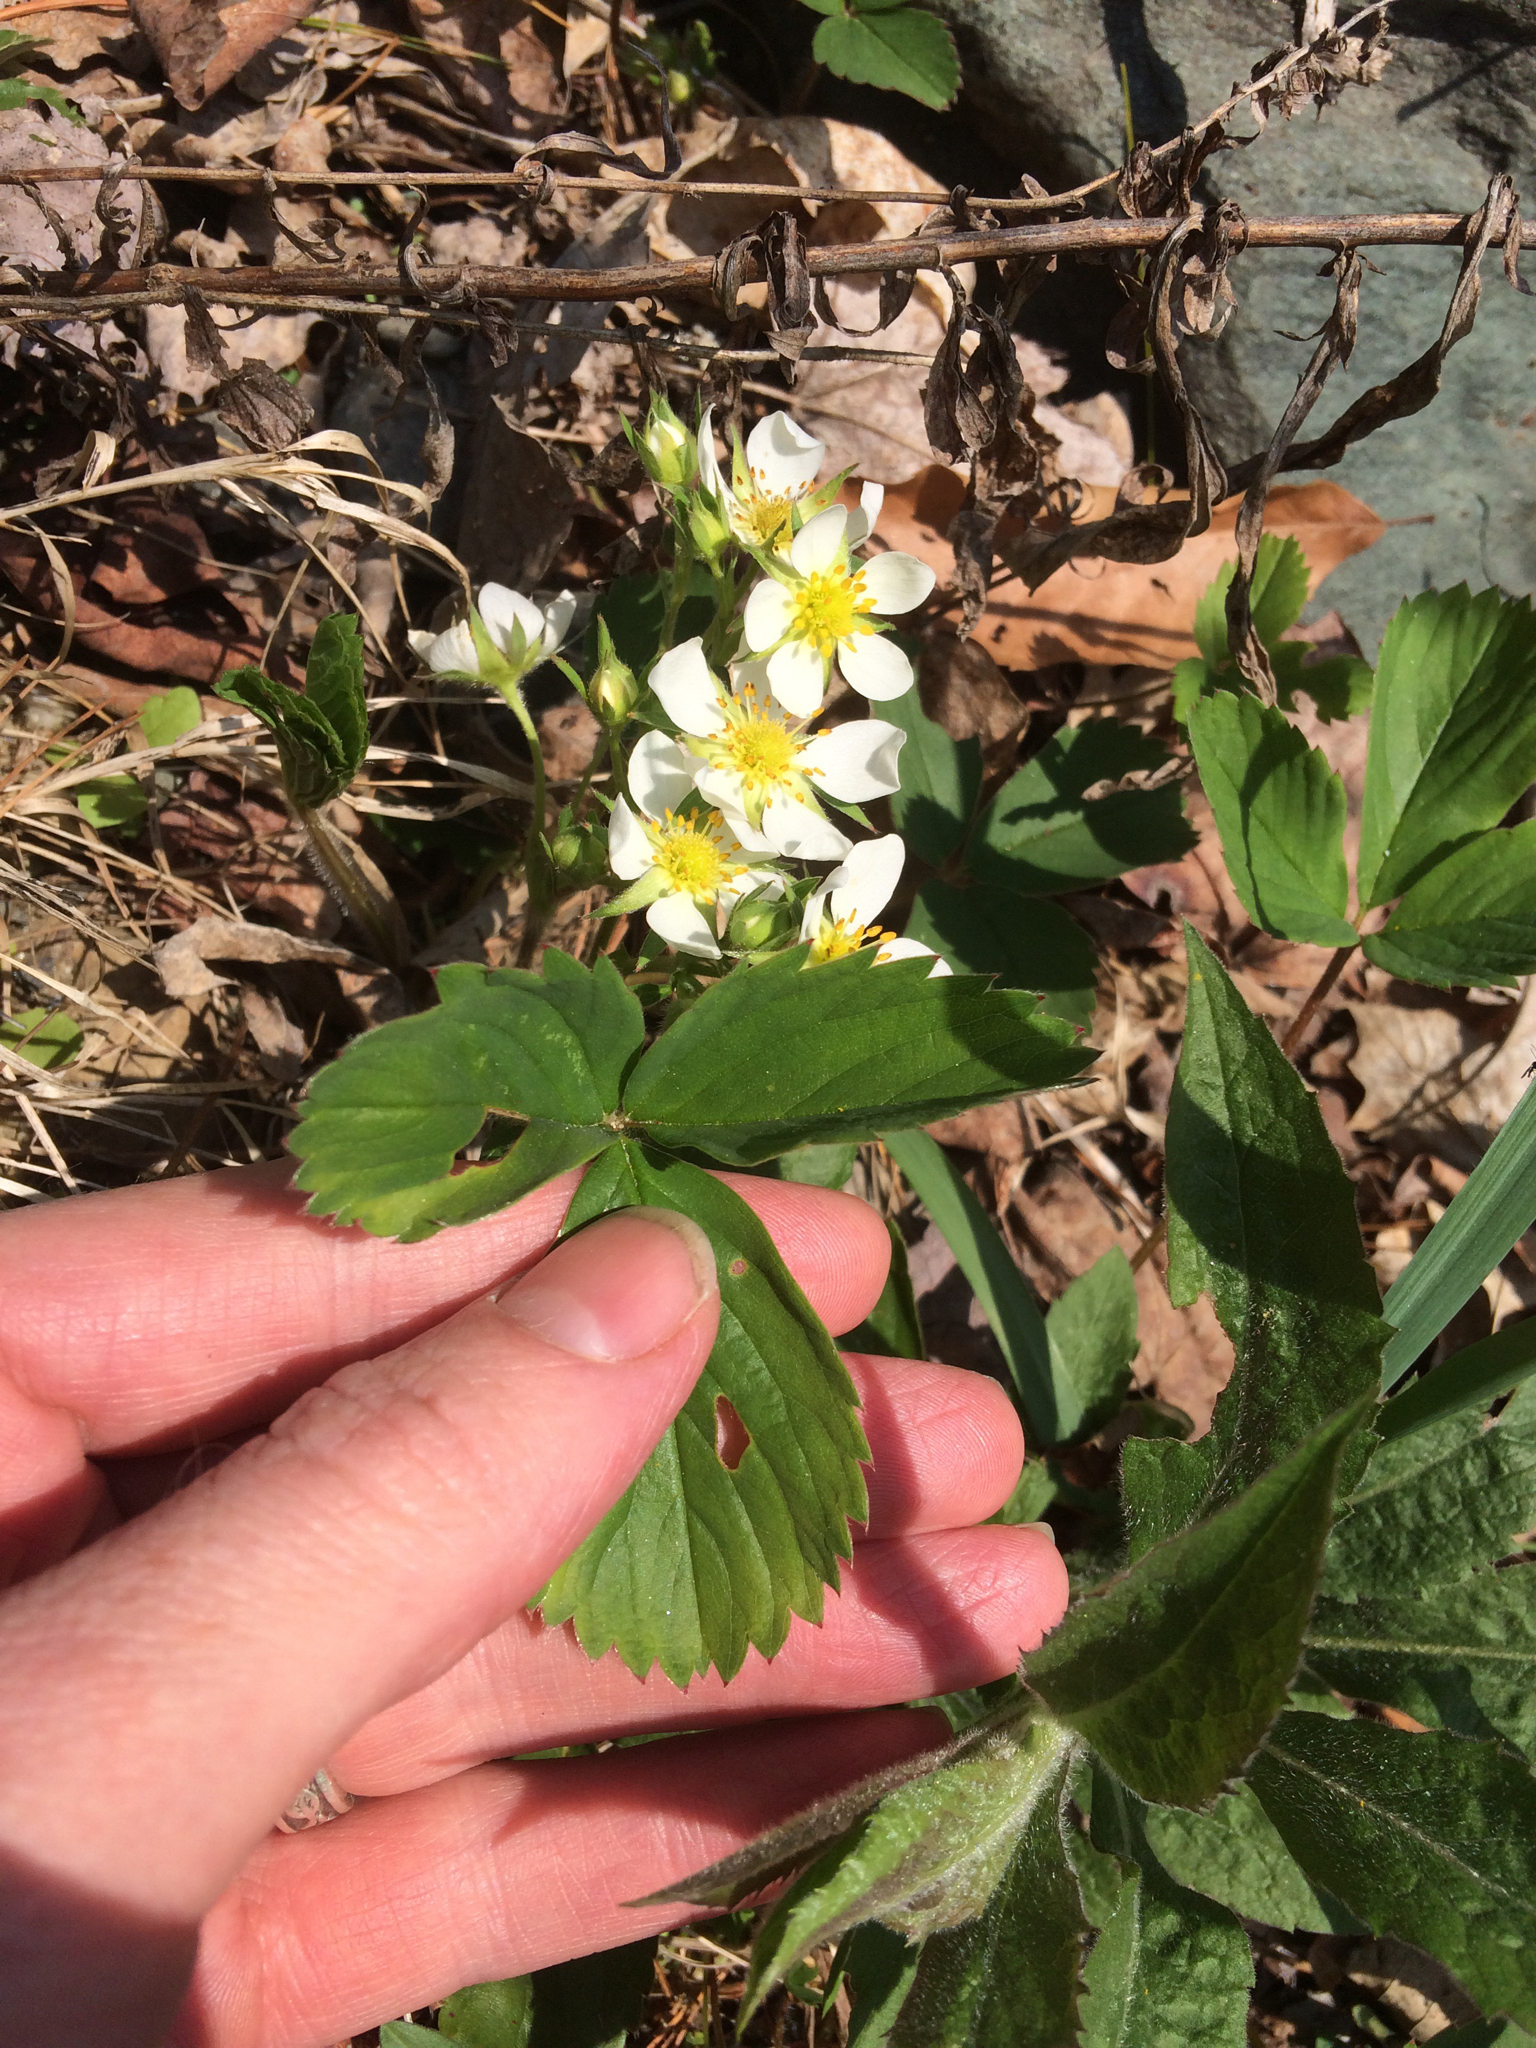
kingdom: Plantae
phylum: Tracheophyta
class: Magnoliopsida
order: Rosales
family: Rosaceae
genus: Fragaria
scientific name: Fragaria virginiana
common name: Thickleaved wild strawberry
